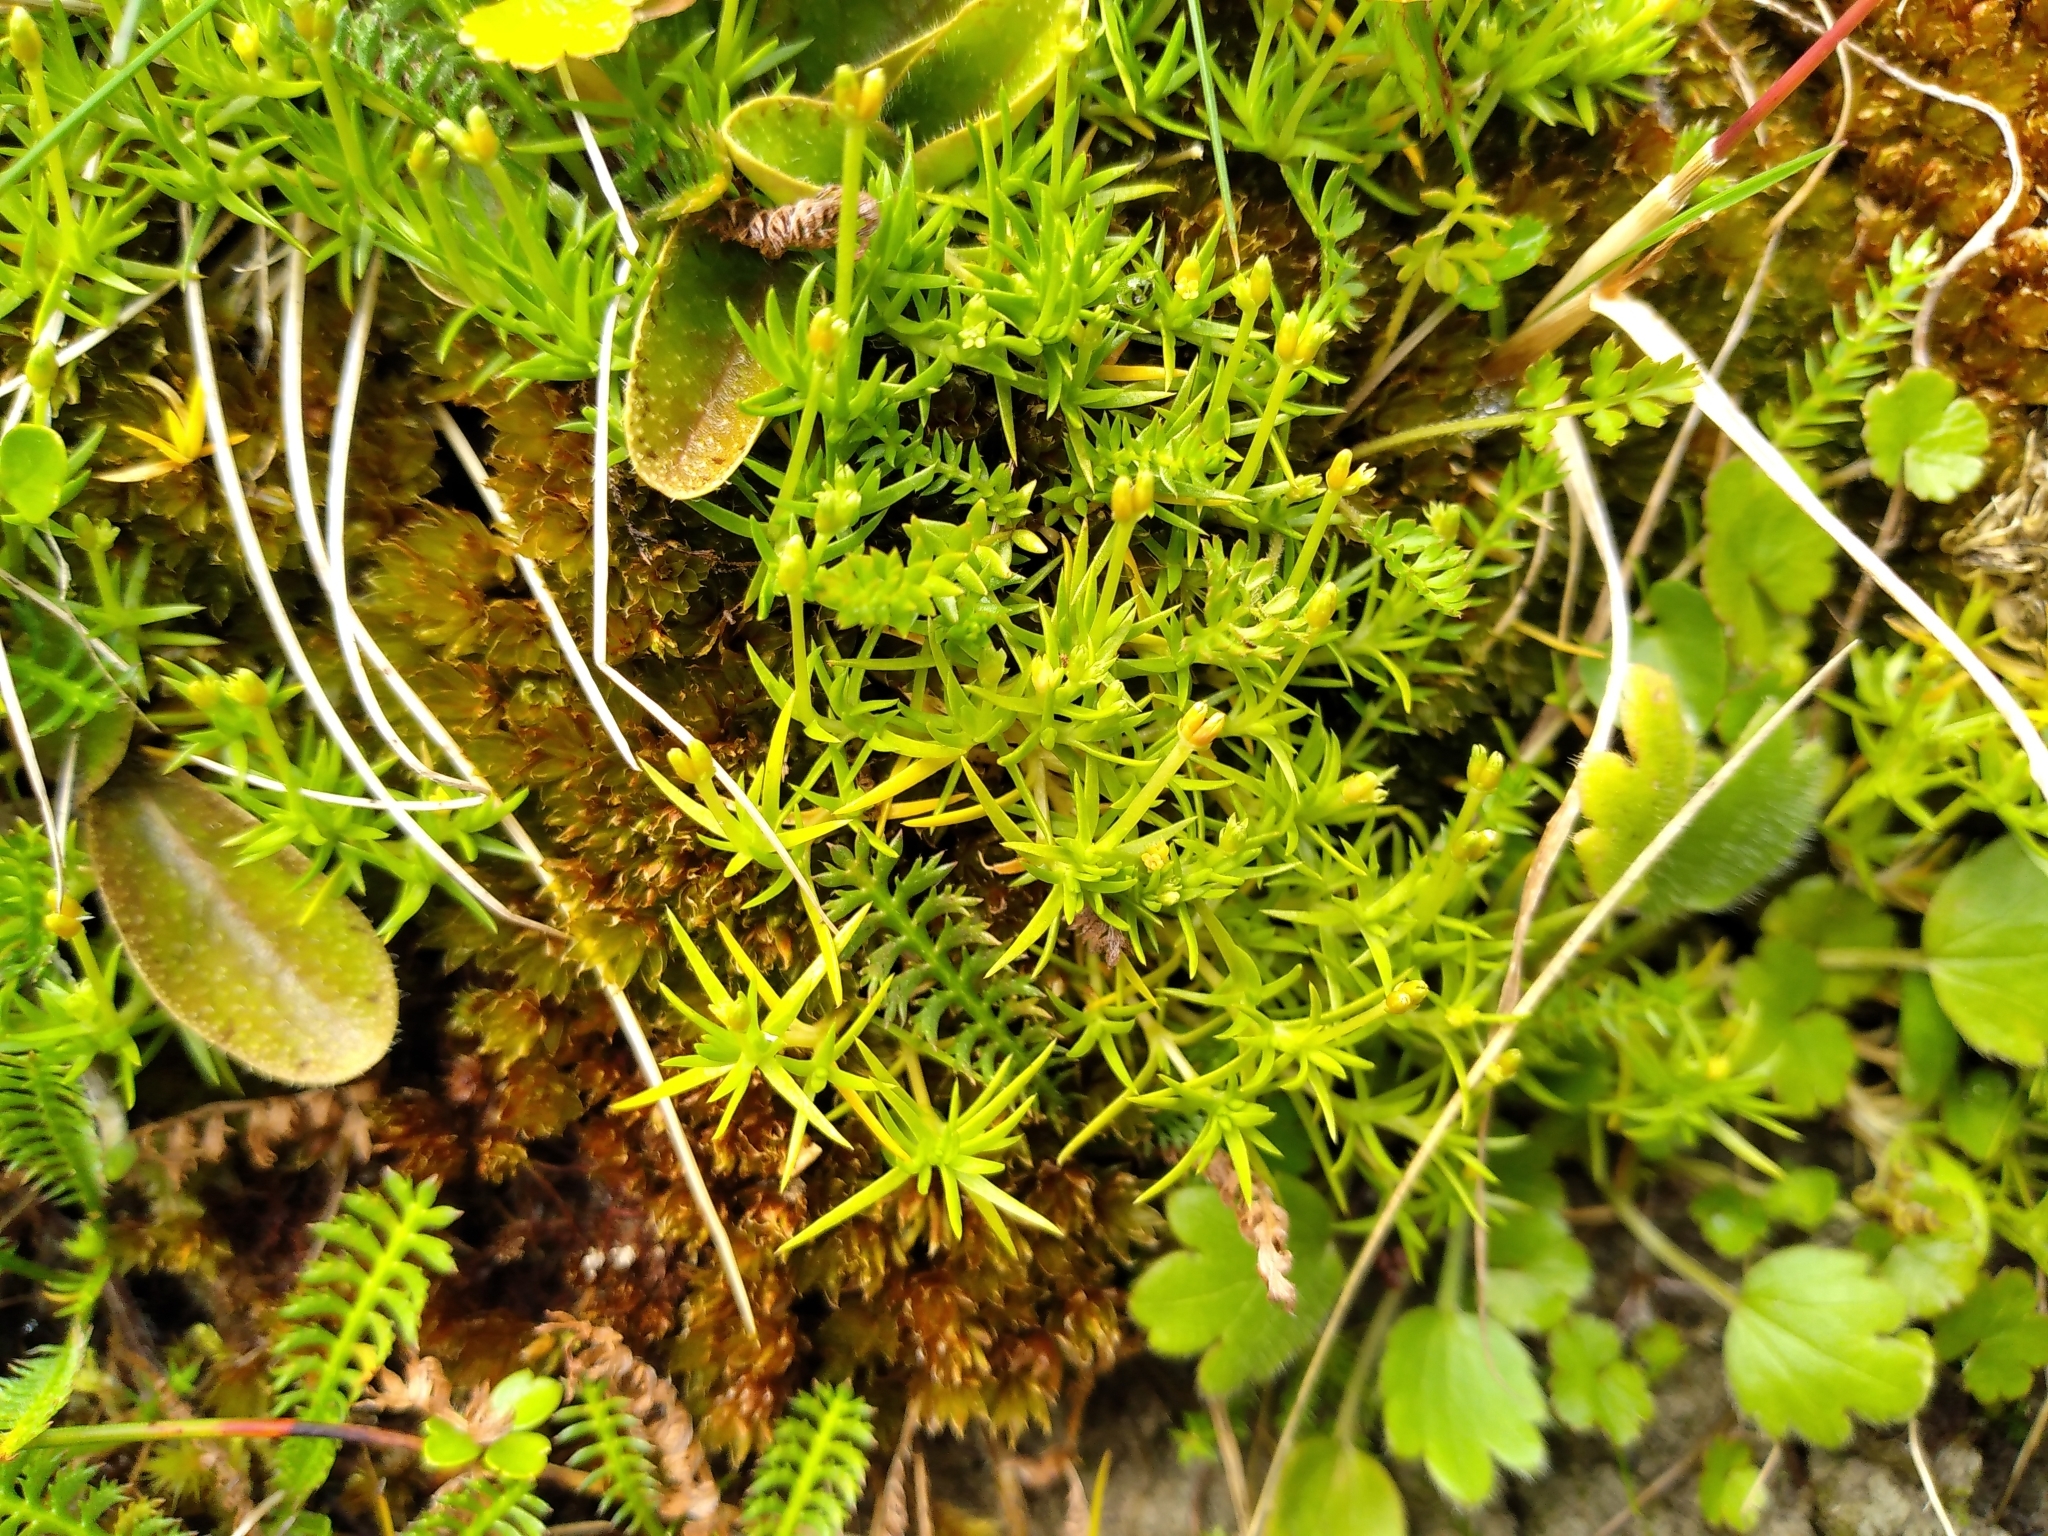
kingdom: Plantae
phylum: Tracheophyta
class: Magnoliopsida
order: Caryophyllales
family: Caryophyllaceae
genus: Scleranthus
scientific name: Scleranthus brockiei
